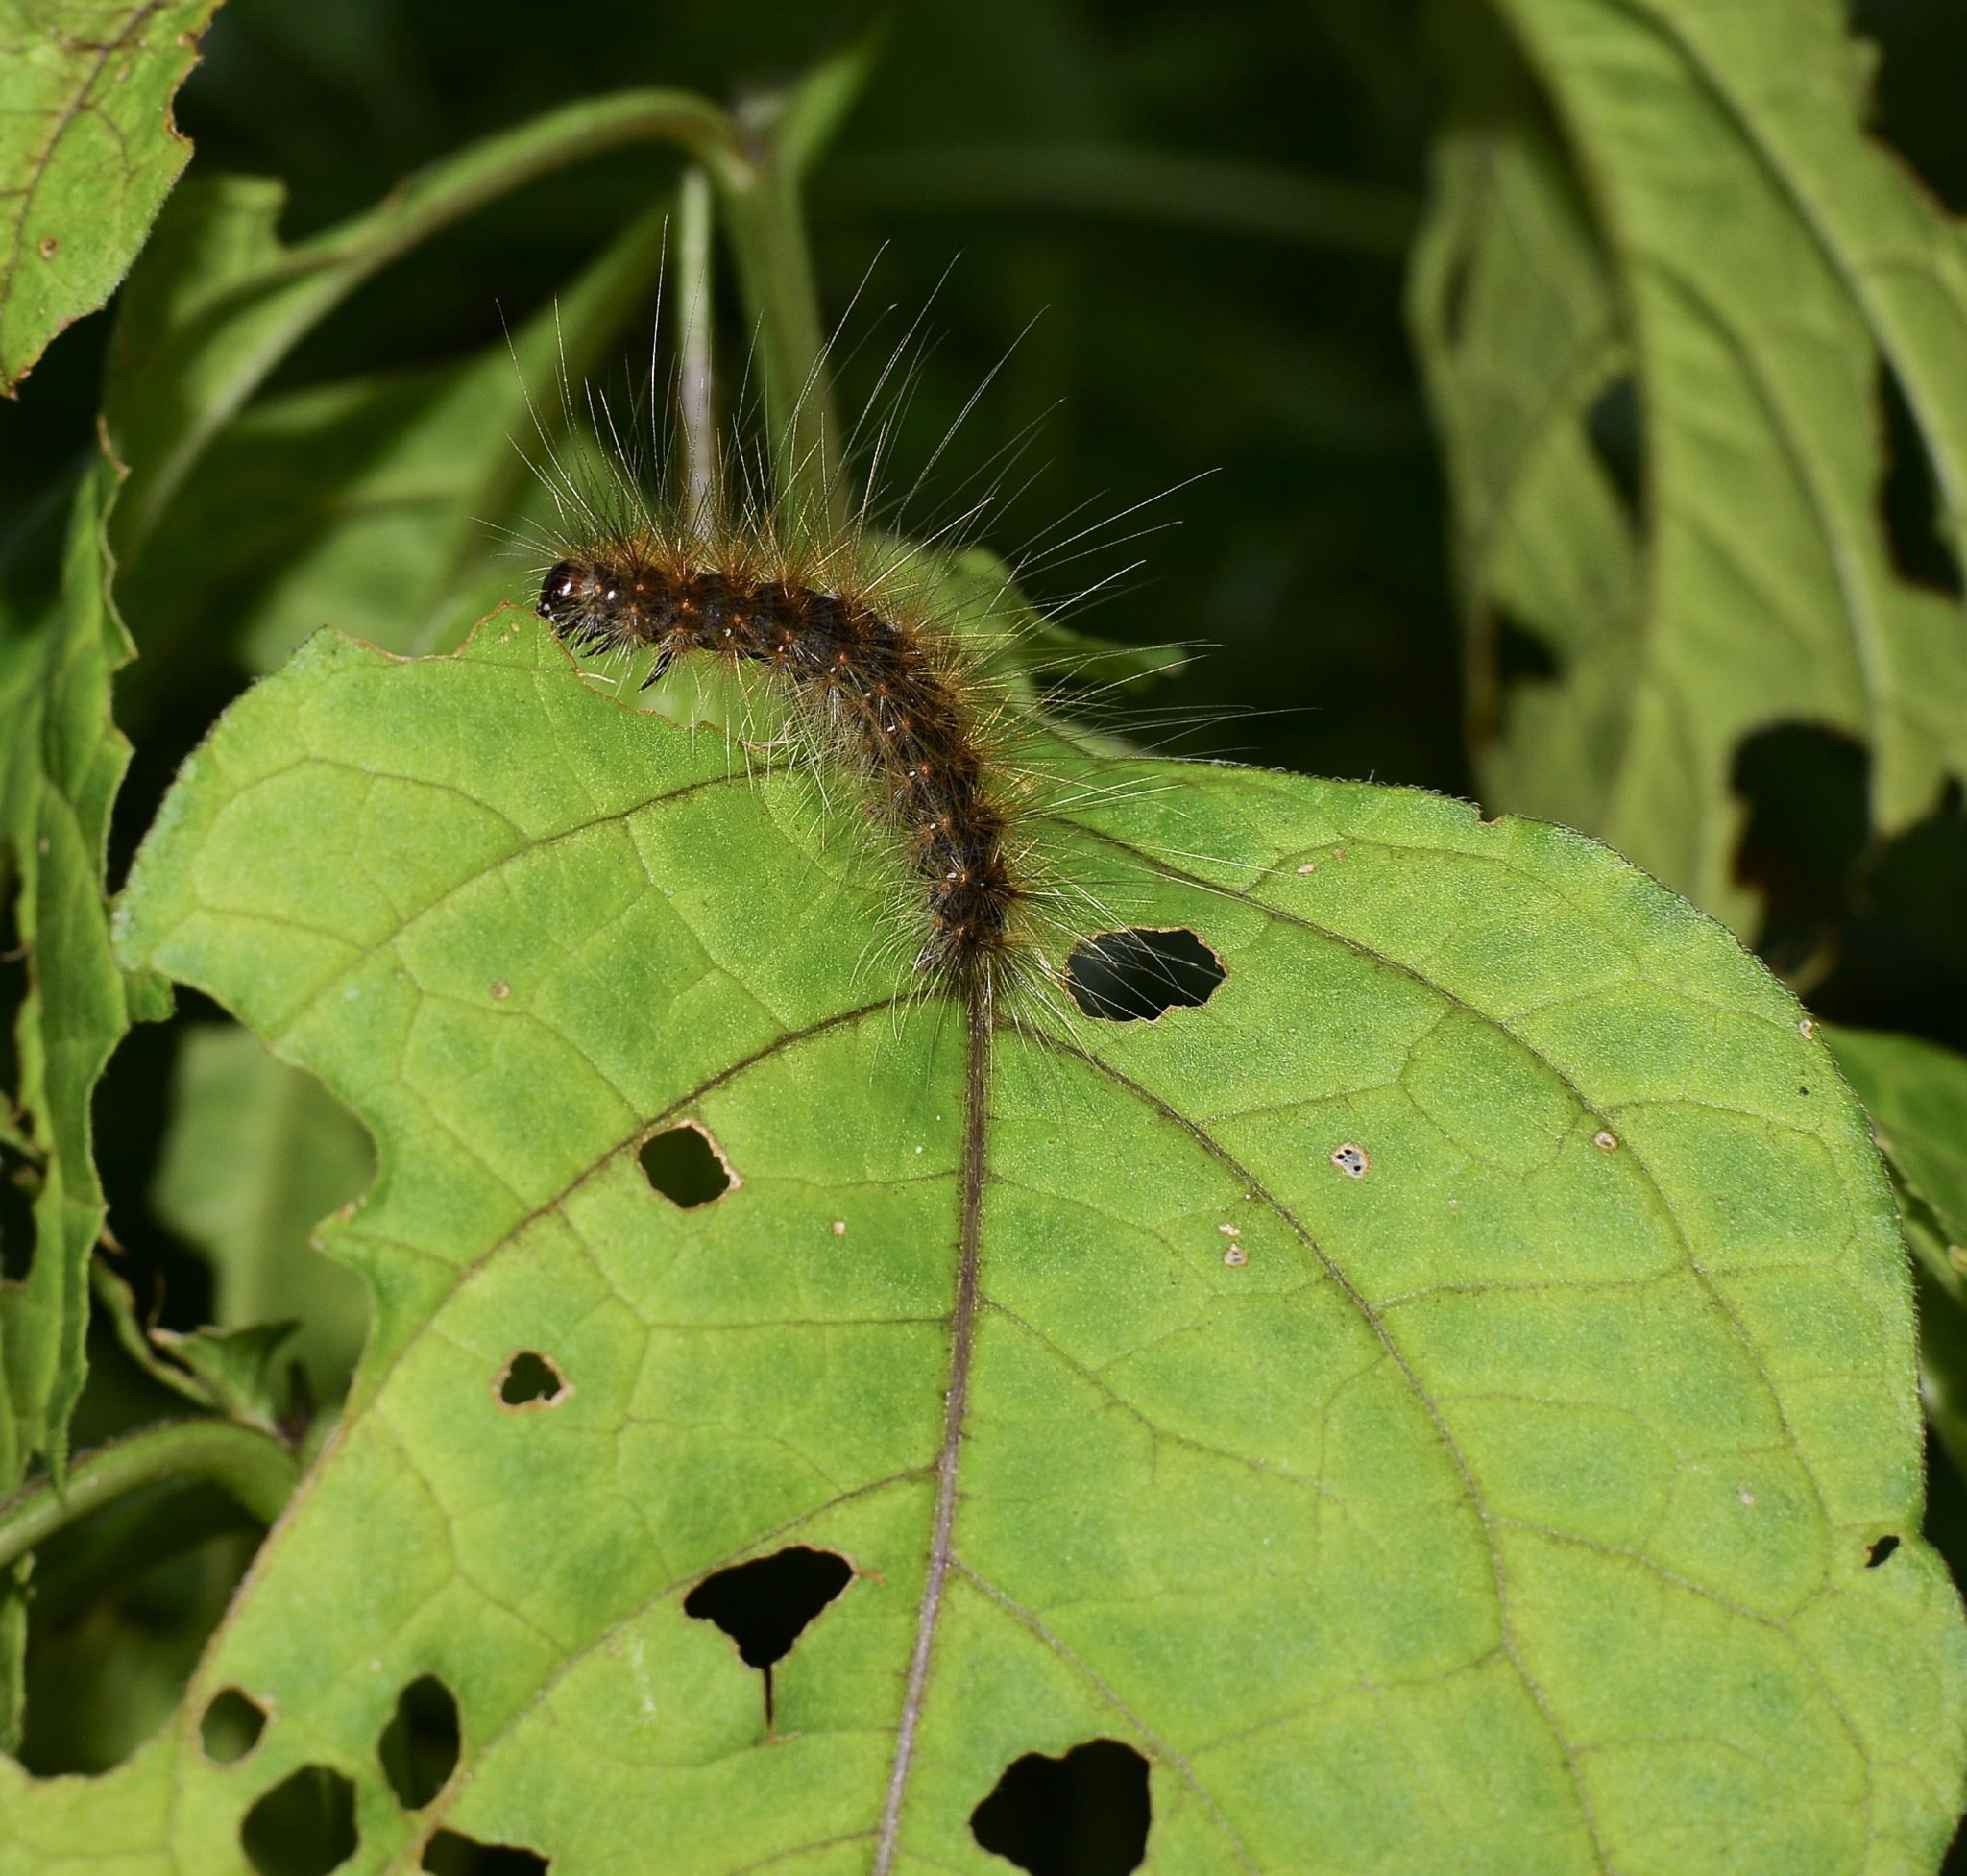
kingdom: Animalia
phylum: Arthropoda
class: Insecta
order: Lepidoptera
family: Erebidae
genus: Hyphantria
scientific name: Hyphantria cunea
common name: American white moth
